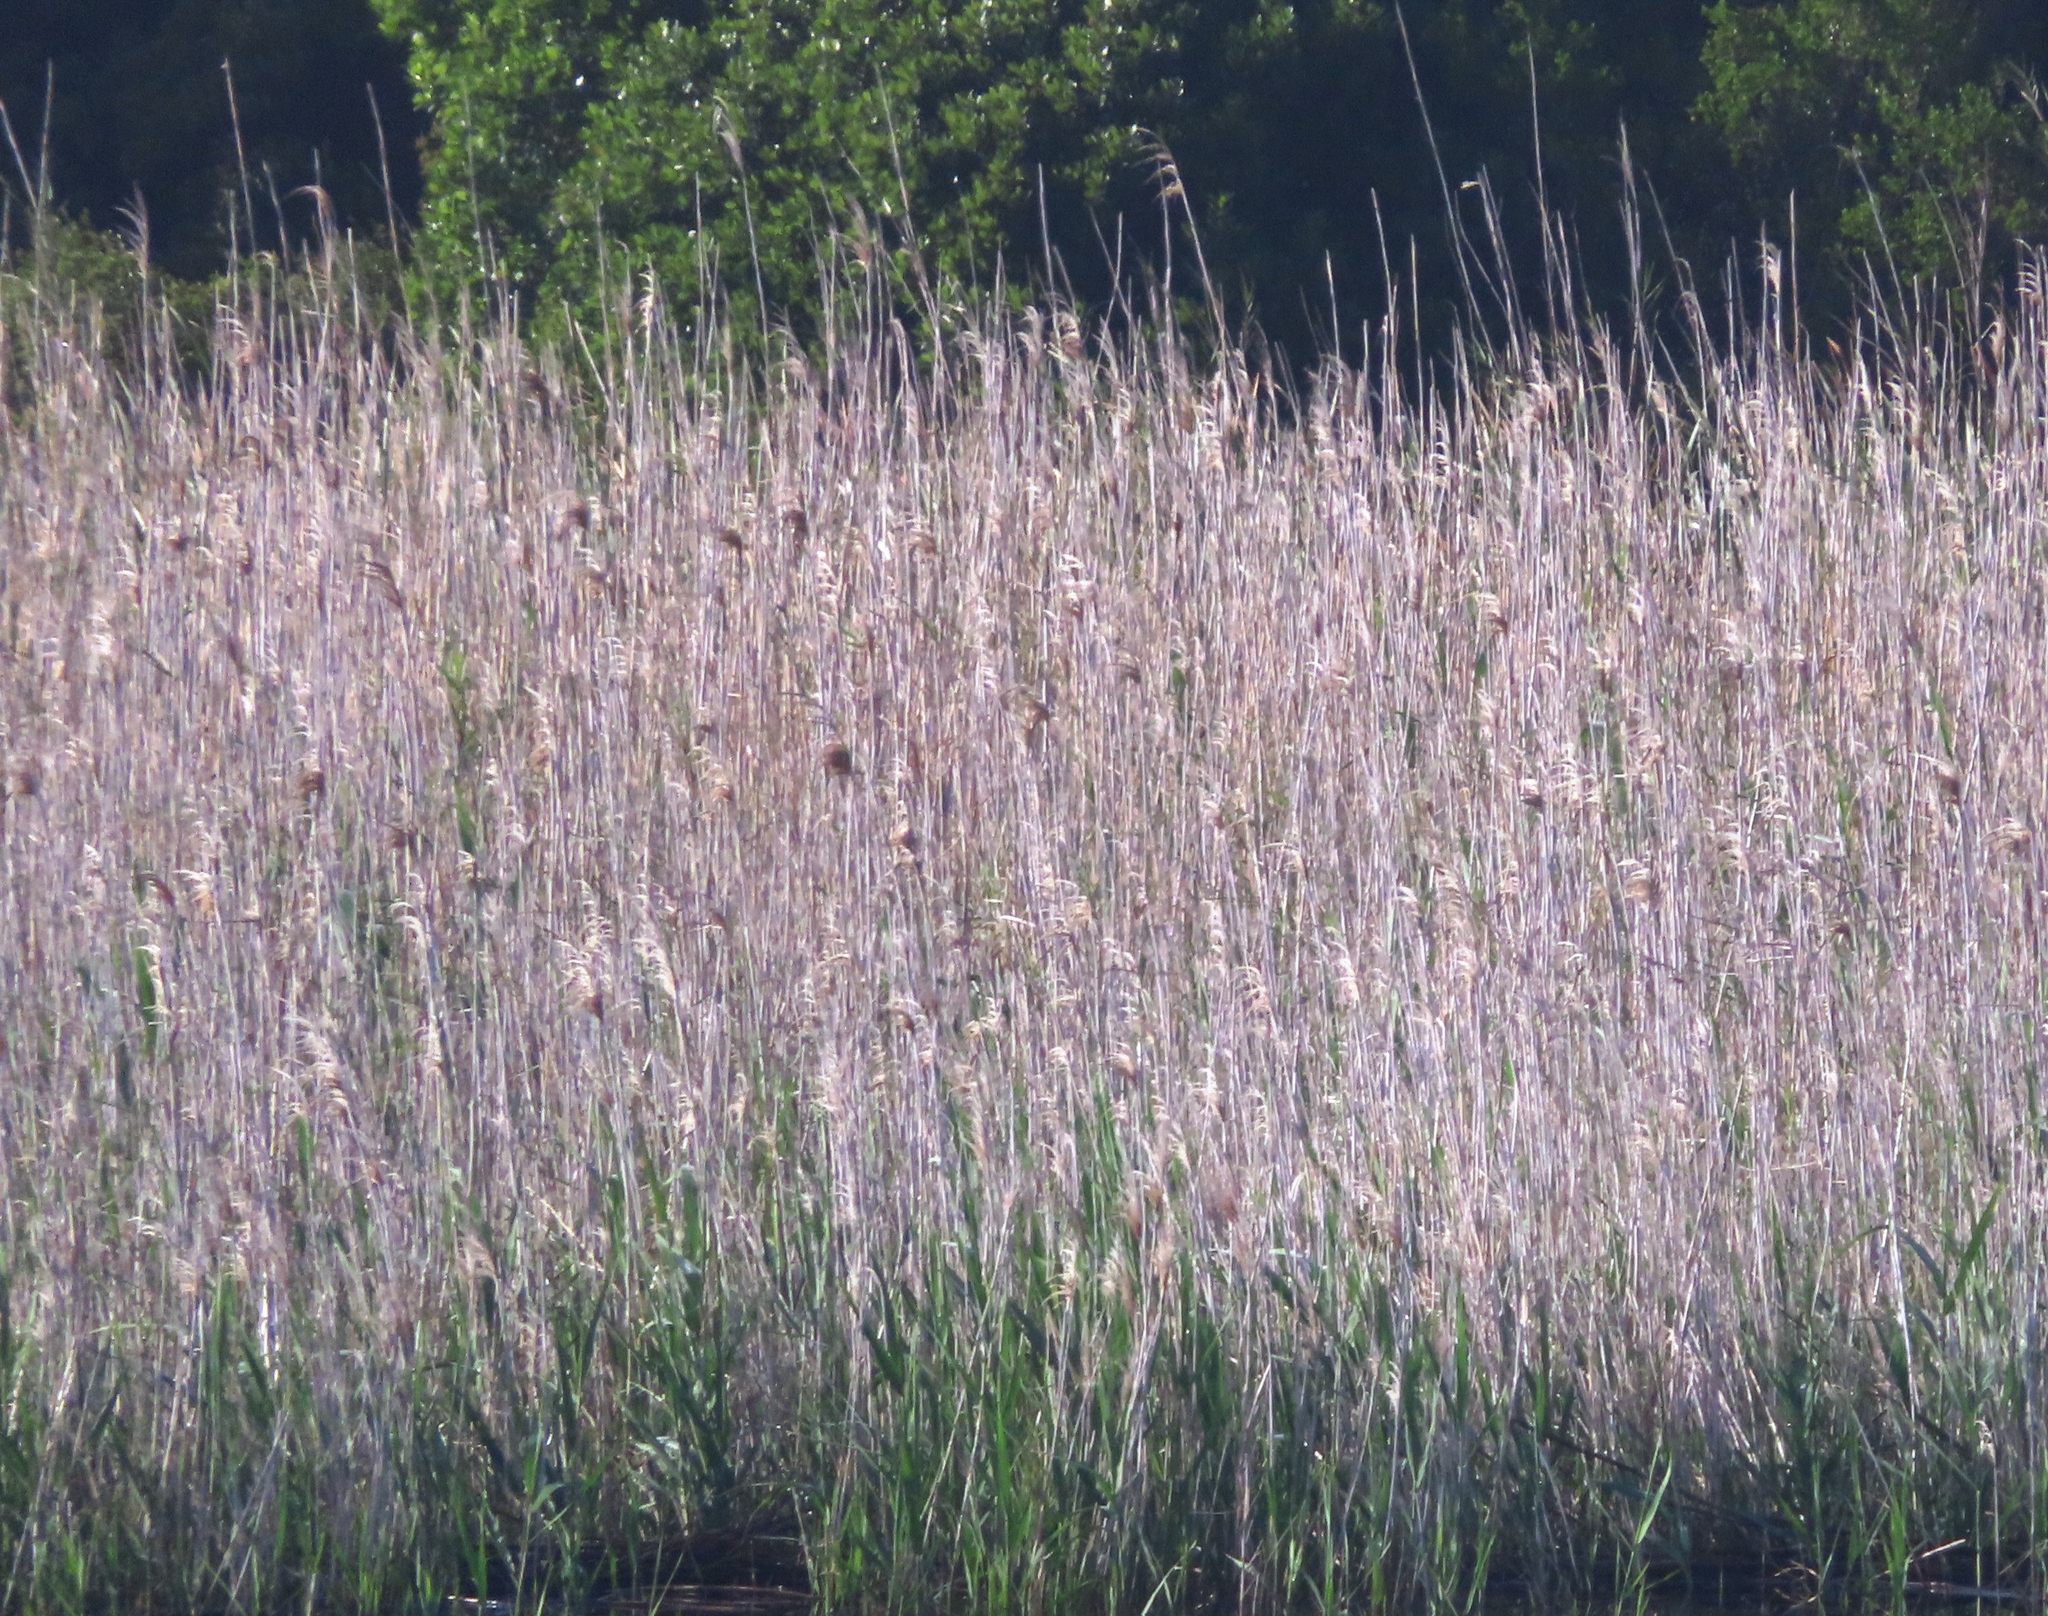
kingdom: Plantae
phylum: Tracheophyta
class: Liliopsida
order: Poales
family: Poaceae
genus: Phragmites
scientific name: Phragmites australis
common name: Common reed
